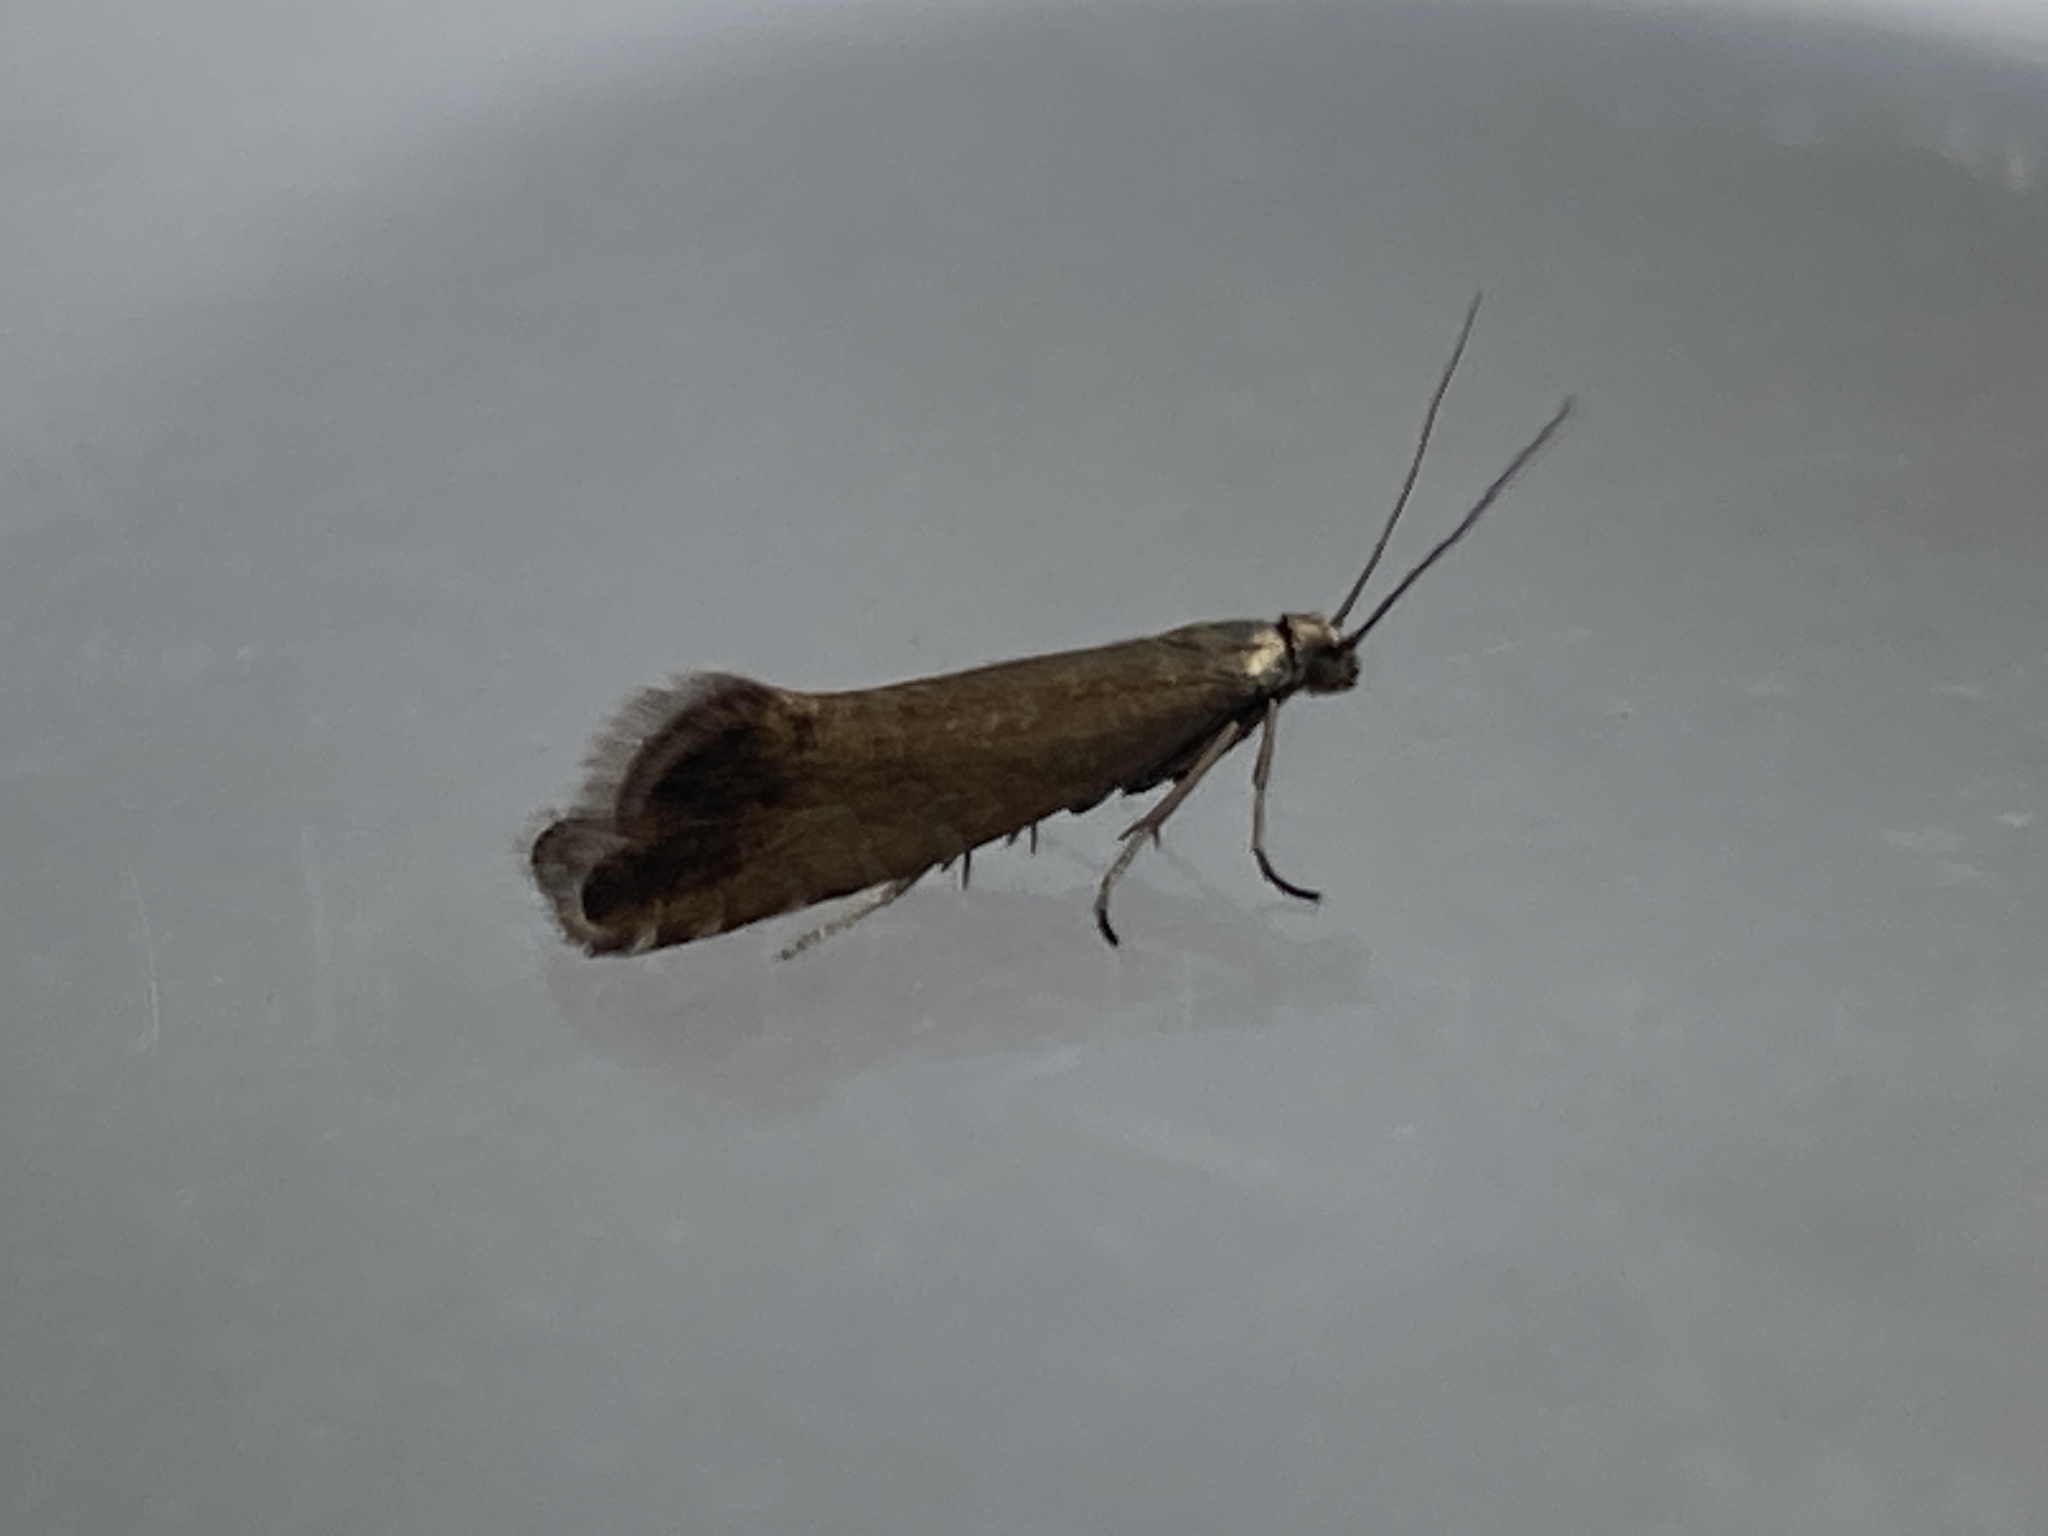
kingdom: Animalia
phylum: Arthropoda
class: Insecta
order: Lepidoptera
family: Glyphipterigidae
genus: Glyphipterix
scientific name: Glyphipterix simpliciella
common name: Cocksfoot moth
